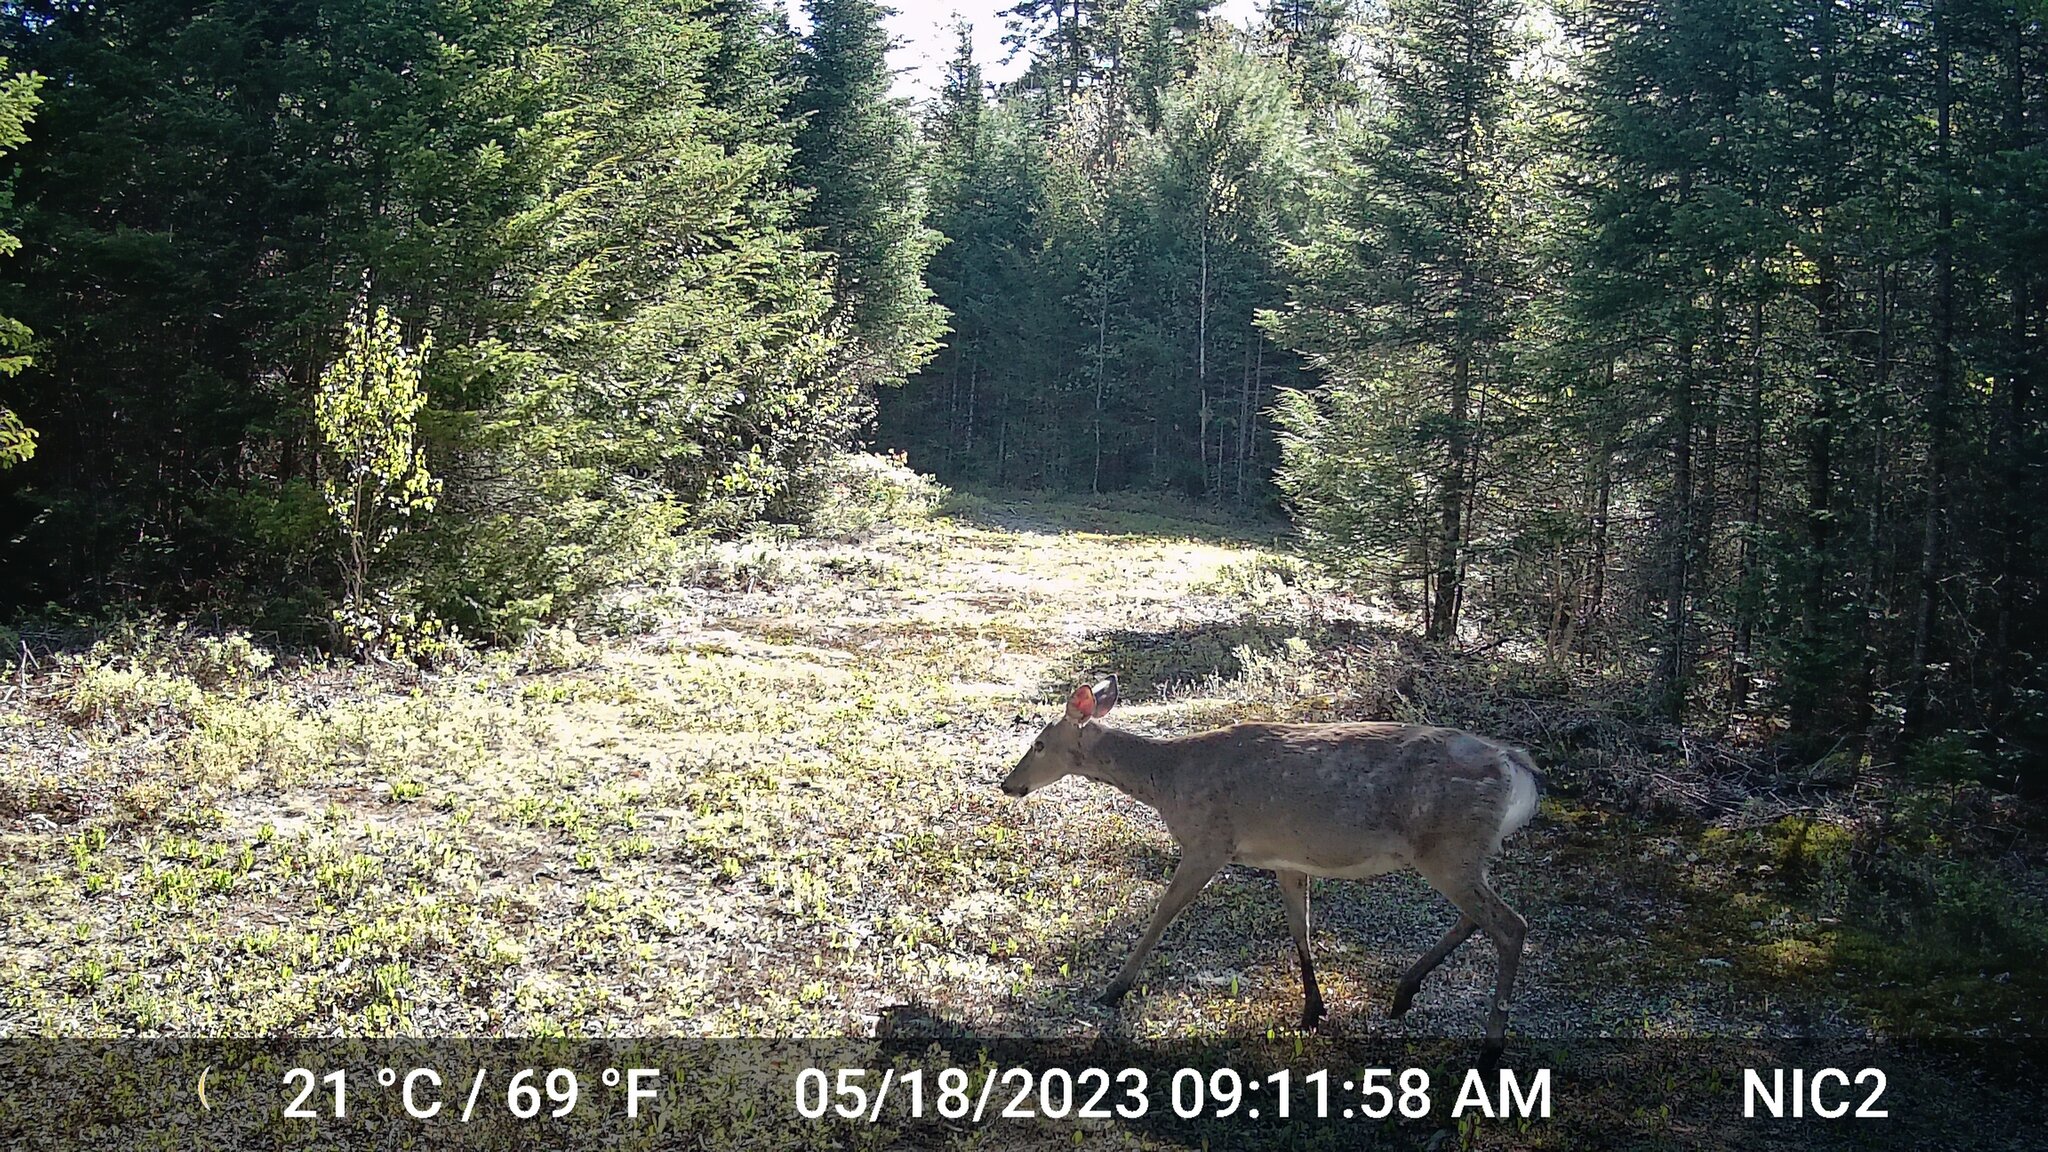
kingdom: Animalia
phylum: Chordata
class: Mammalia
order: Artiodactyla
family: Cervidae
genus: Odocoileus
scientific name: Odocoileus virginianus
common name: White-tailed deer
